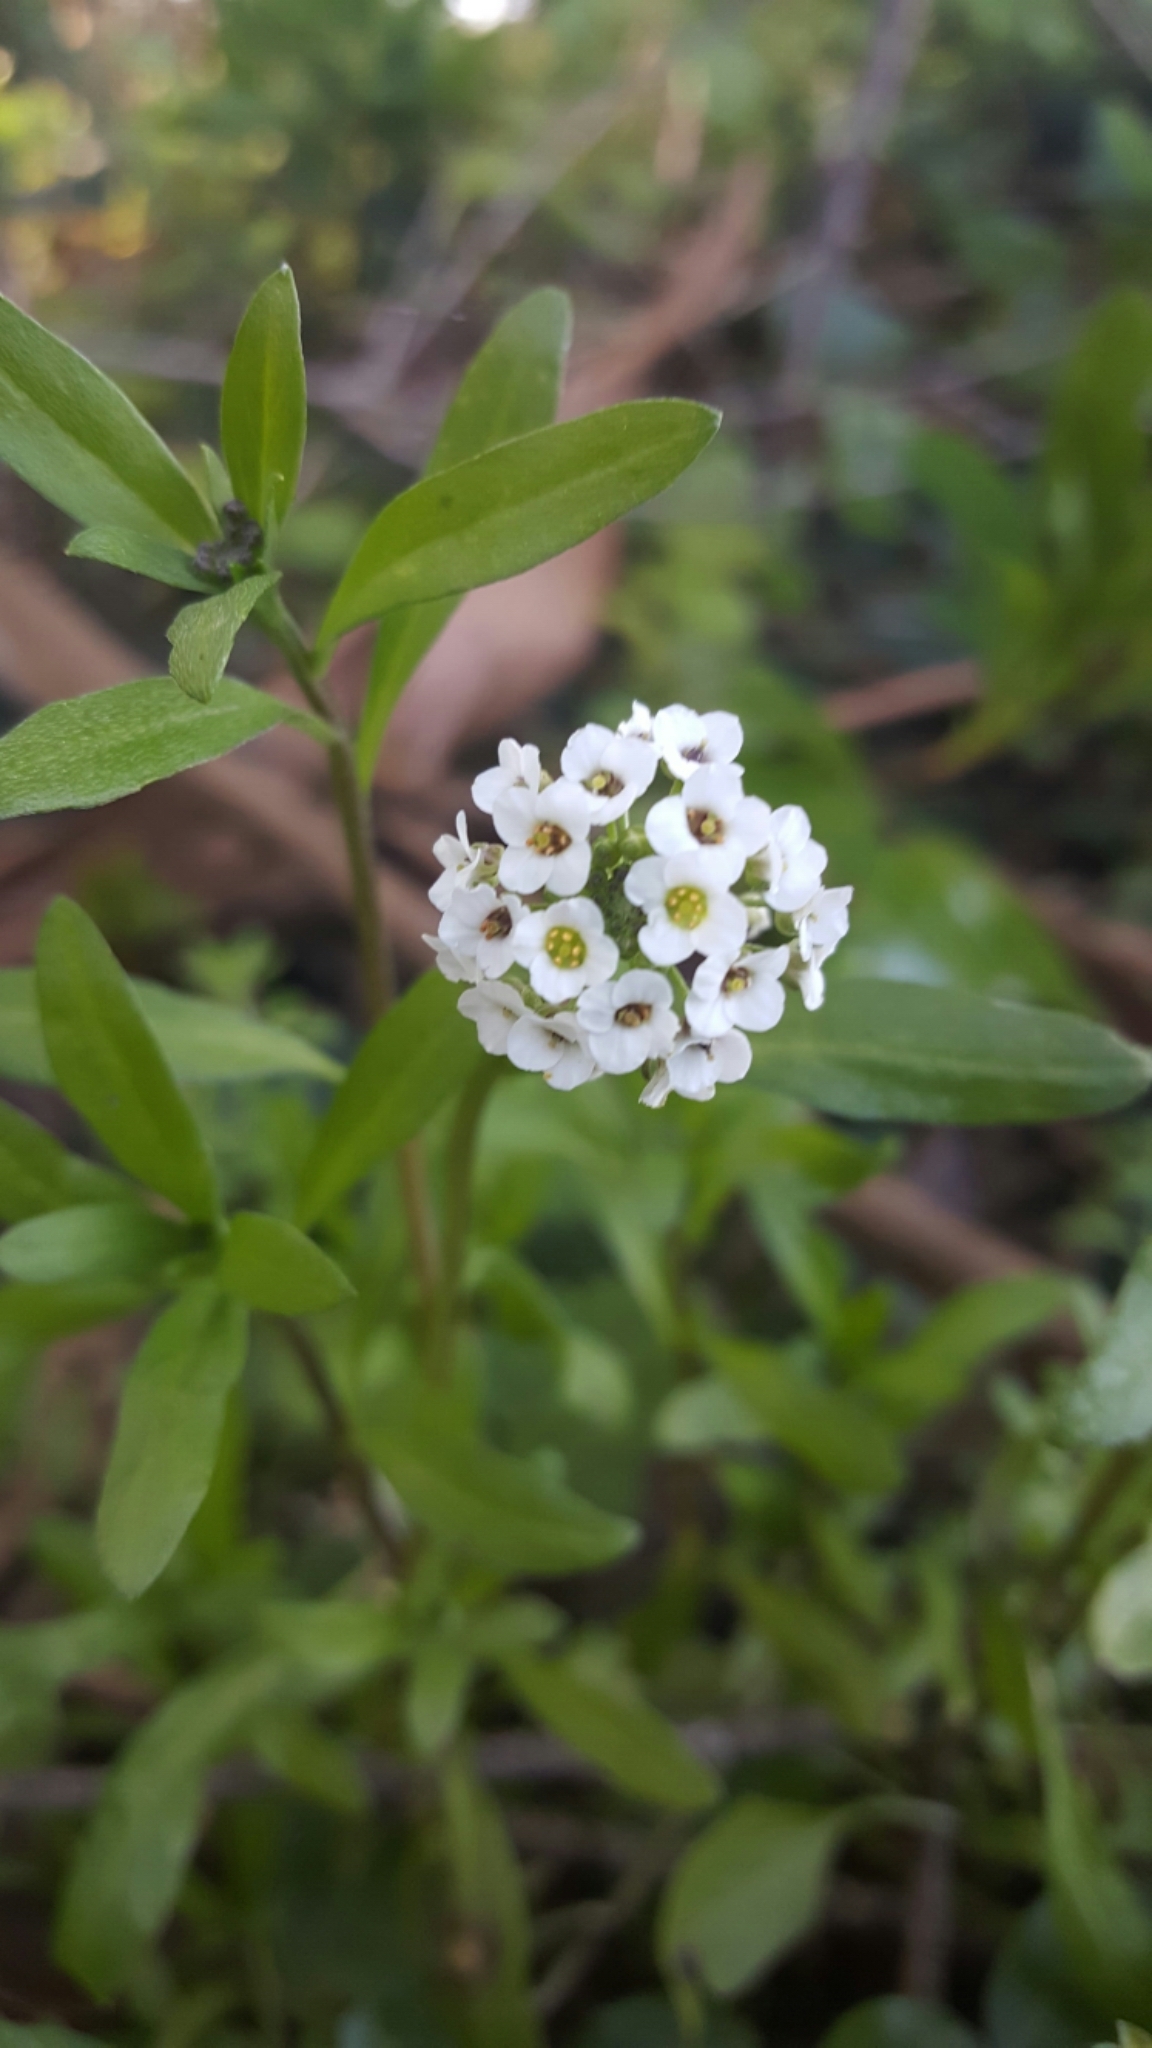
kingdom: Plantae
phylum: Tracheophyta
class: Magnoliopsida
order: Brassicales
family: Brassicaceae
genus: Lobularia
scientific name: Lobularia maritima
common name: Sweet alison
